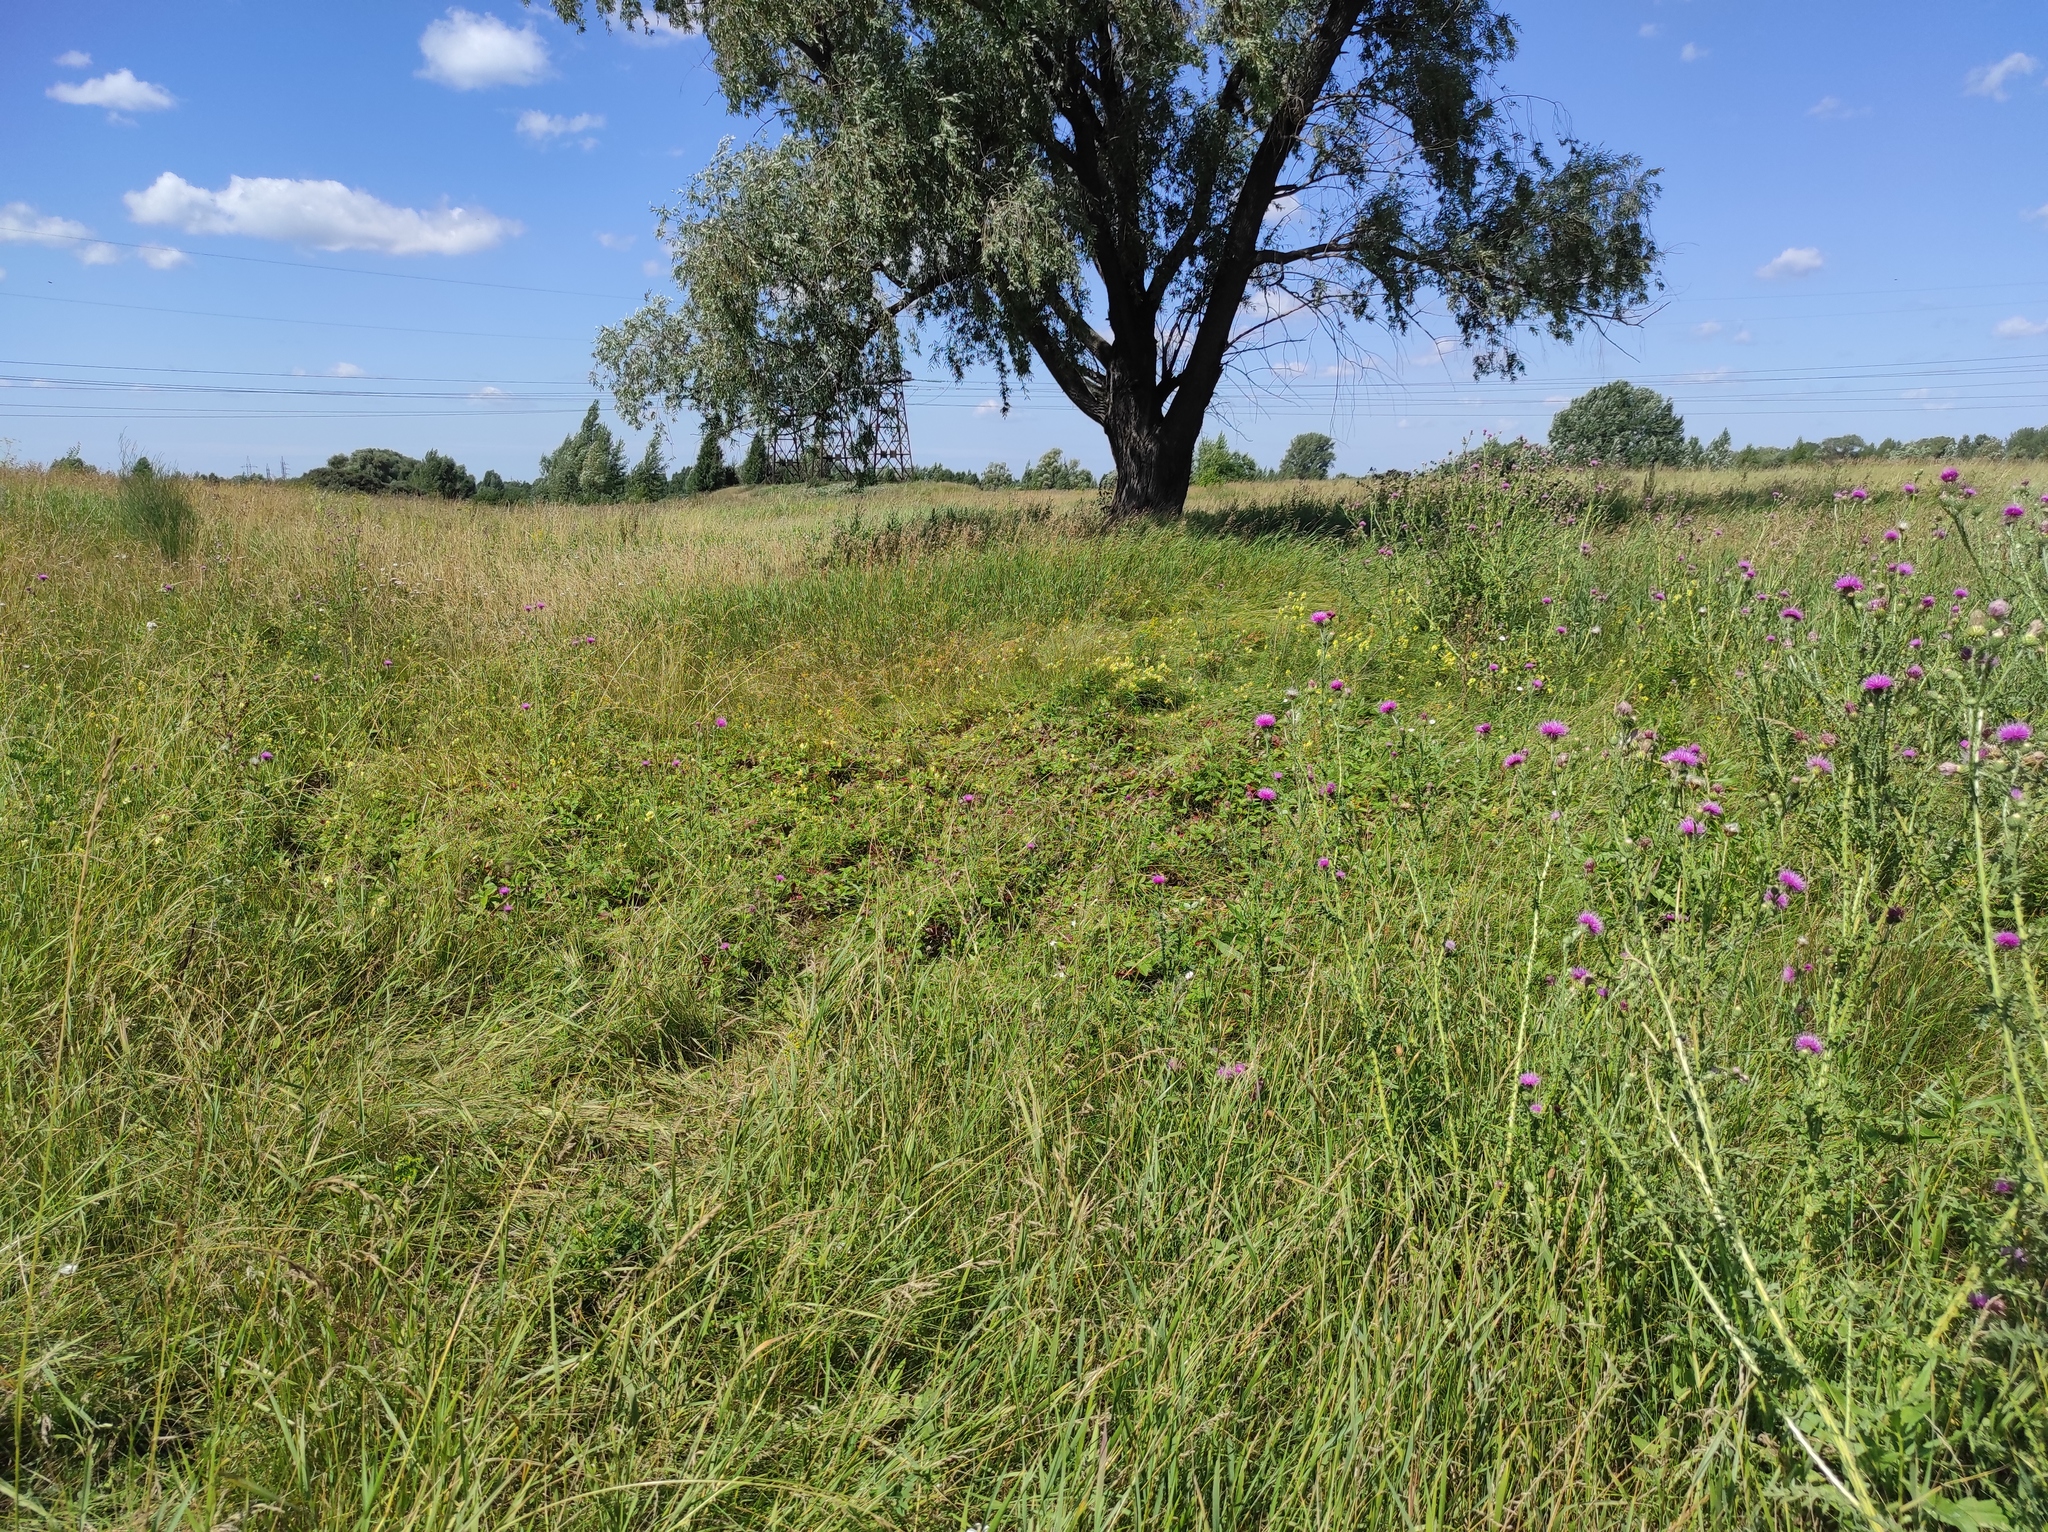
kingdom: Plantae
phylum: Tracheophyta
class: Magnoliopsida
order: Rosales
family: Rosaceae
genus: Fragaria
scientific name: Fragaria viridis
